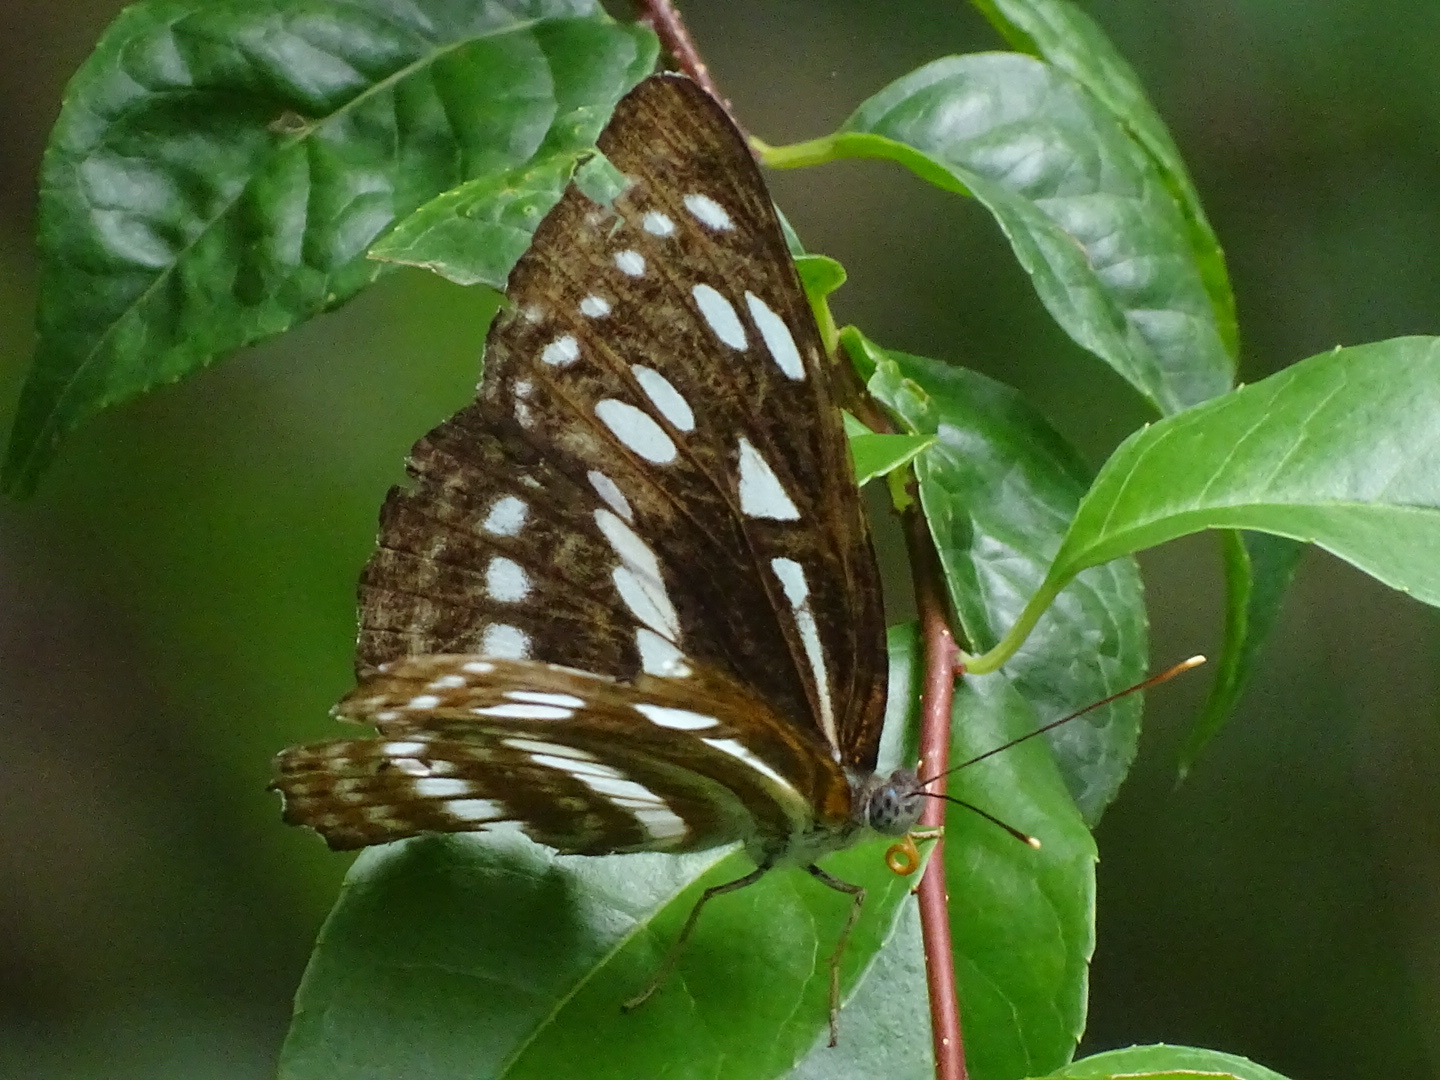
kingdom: Animalia
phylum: Arthropoda
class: Insecta
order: Lepidoptera
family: Nymphalidae
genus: Phaedyma
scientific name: Phaedyma columella
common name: Short banded sailer
